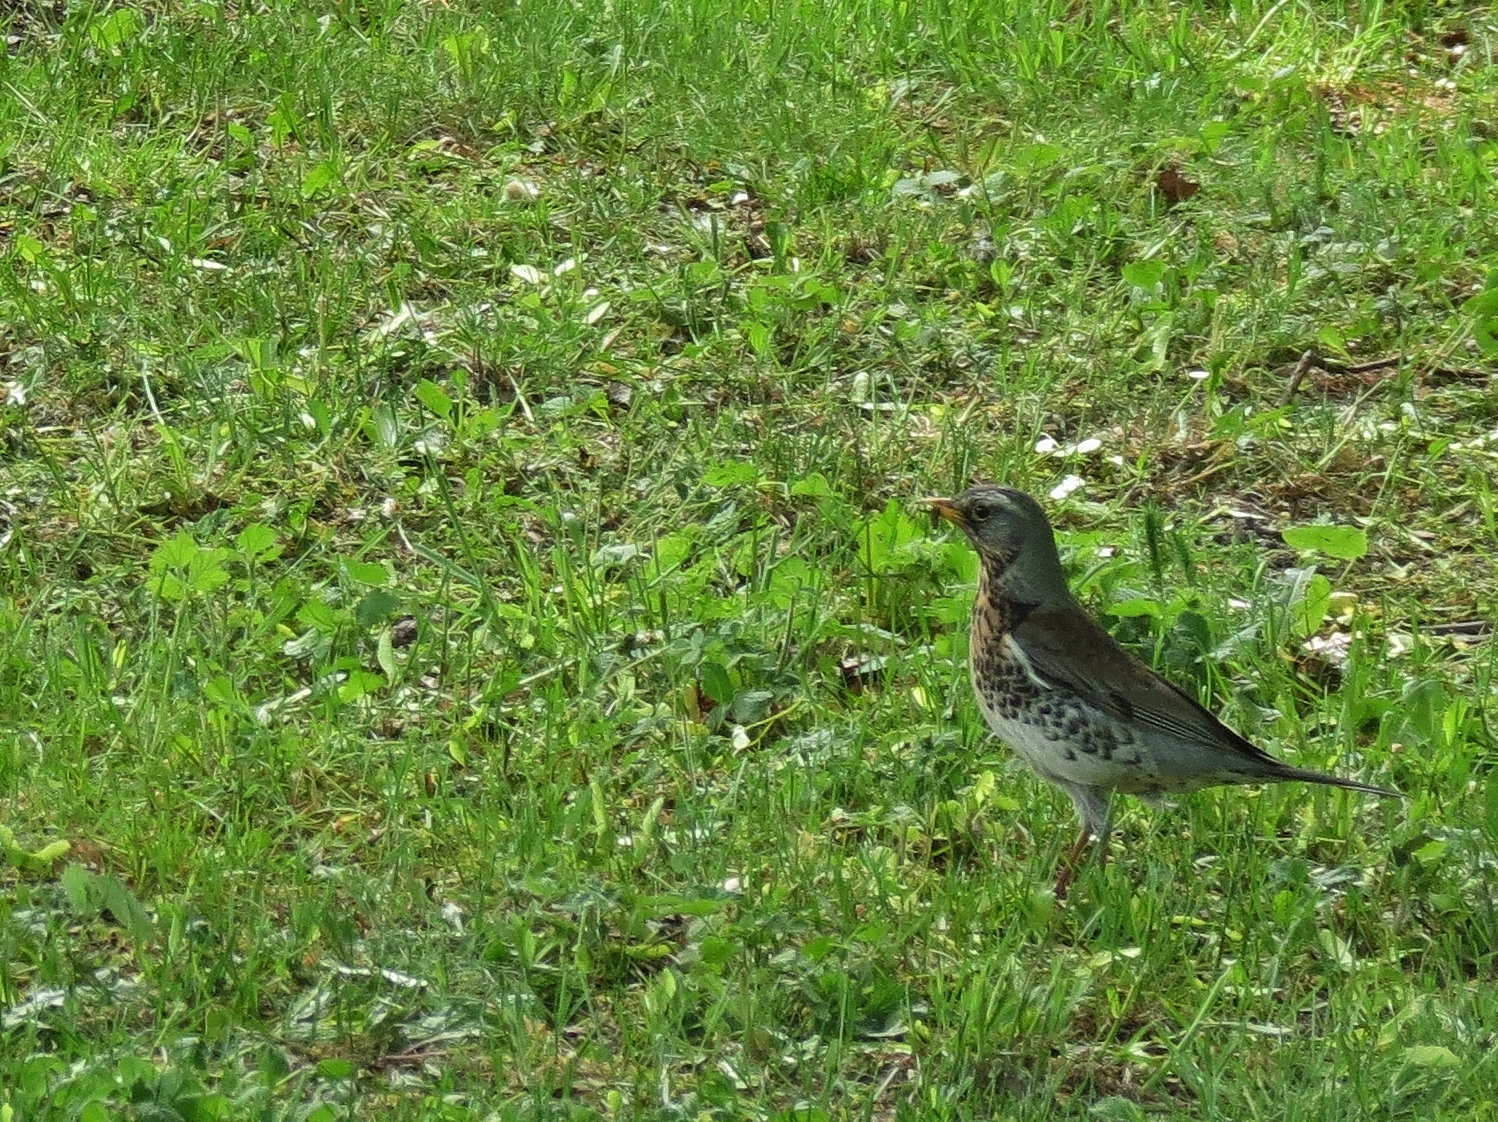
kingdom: Animalia
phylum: Chordata
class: Aves
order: Passeriformes
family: Turdidae
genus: Turdus
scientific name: Turdus pilaris
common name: Fieldfare
